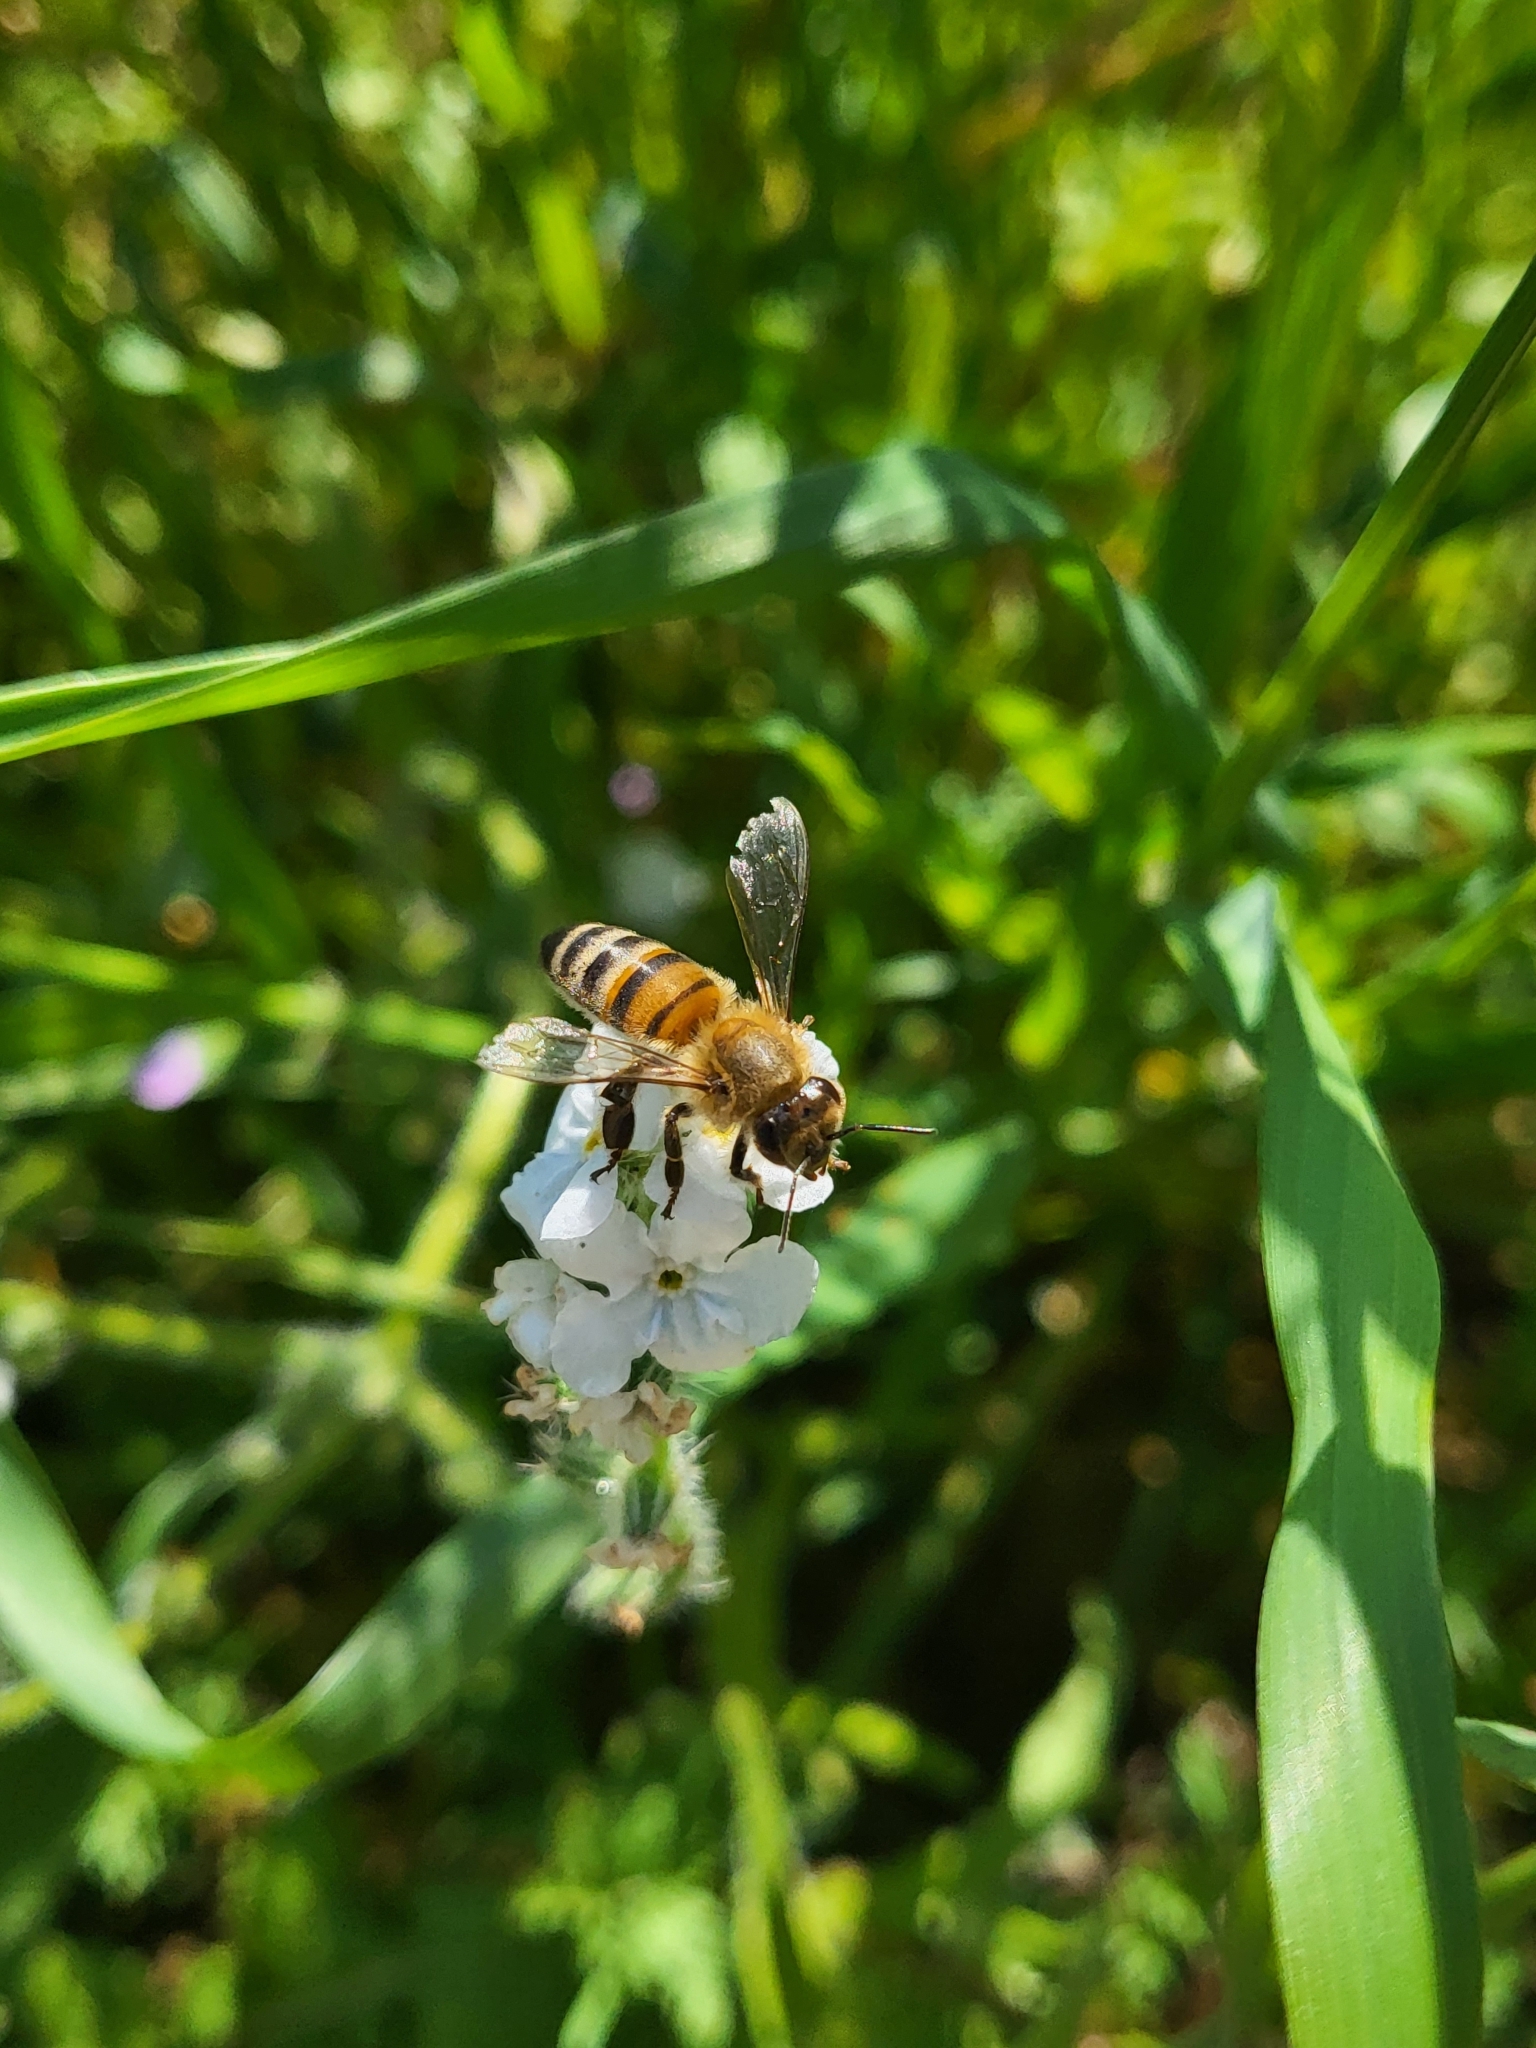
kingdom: Animalia
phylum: Arthropoda
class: Insecta
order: Hymenoptera
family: Apidae
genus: Apis
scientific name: Apis mellifera
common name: Honey bee
